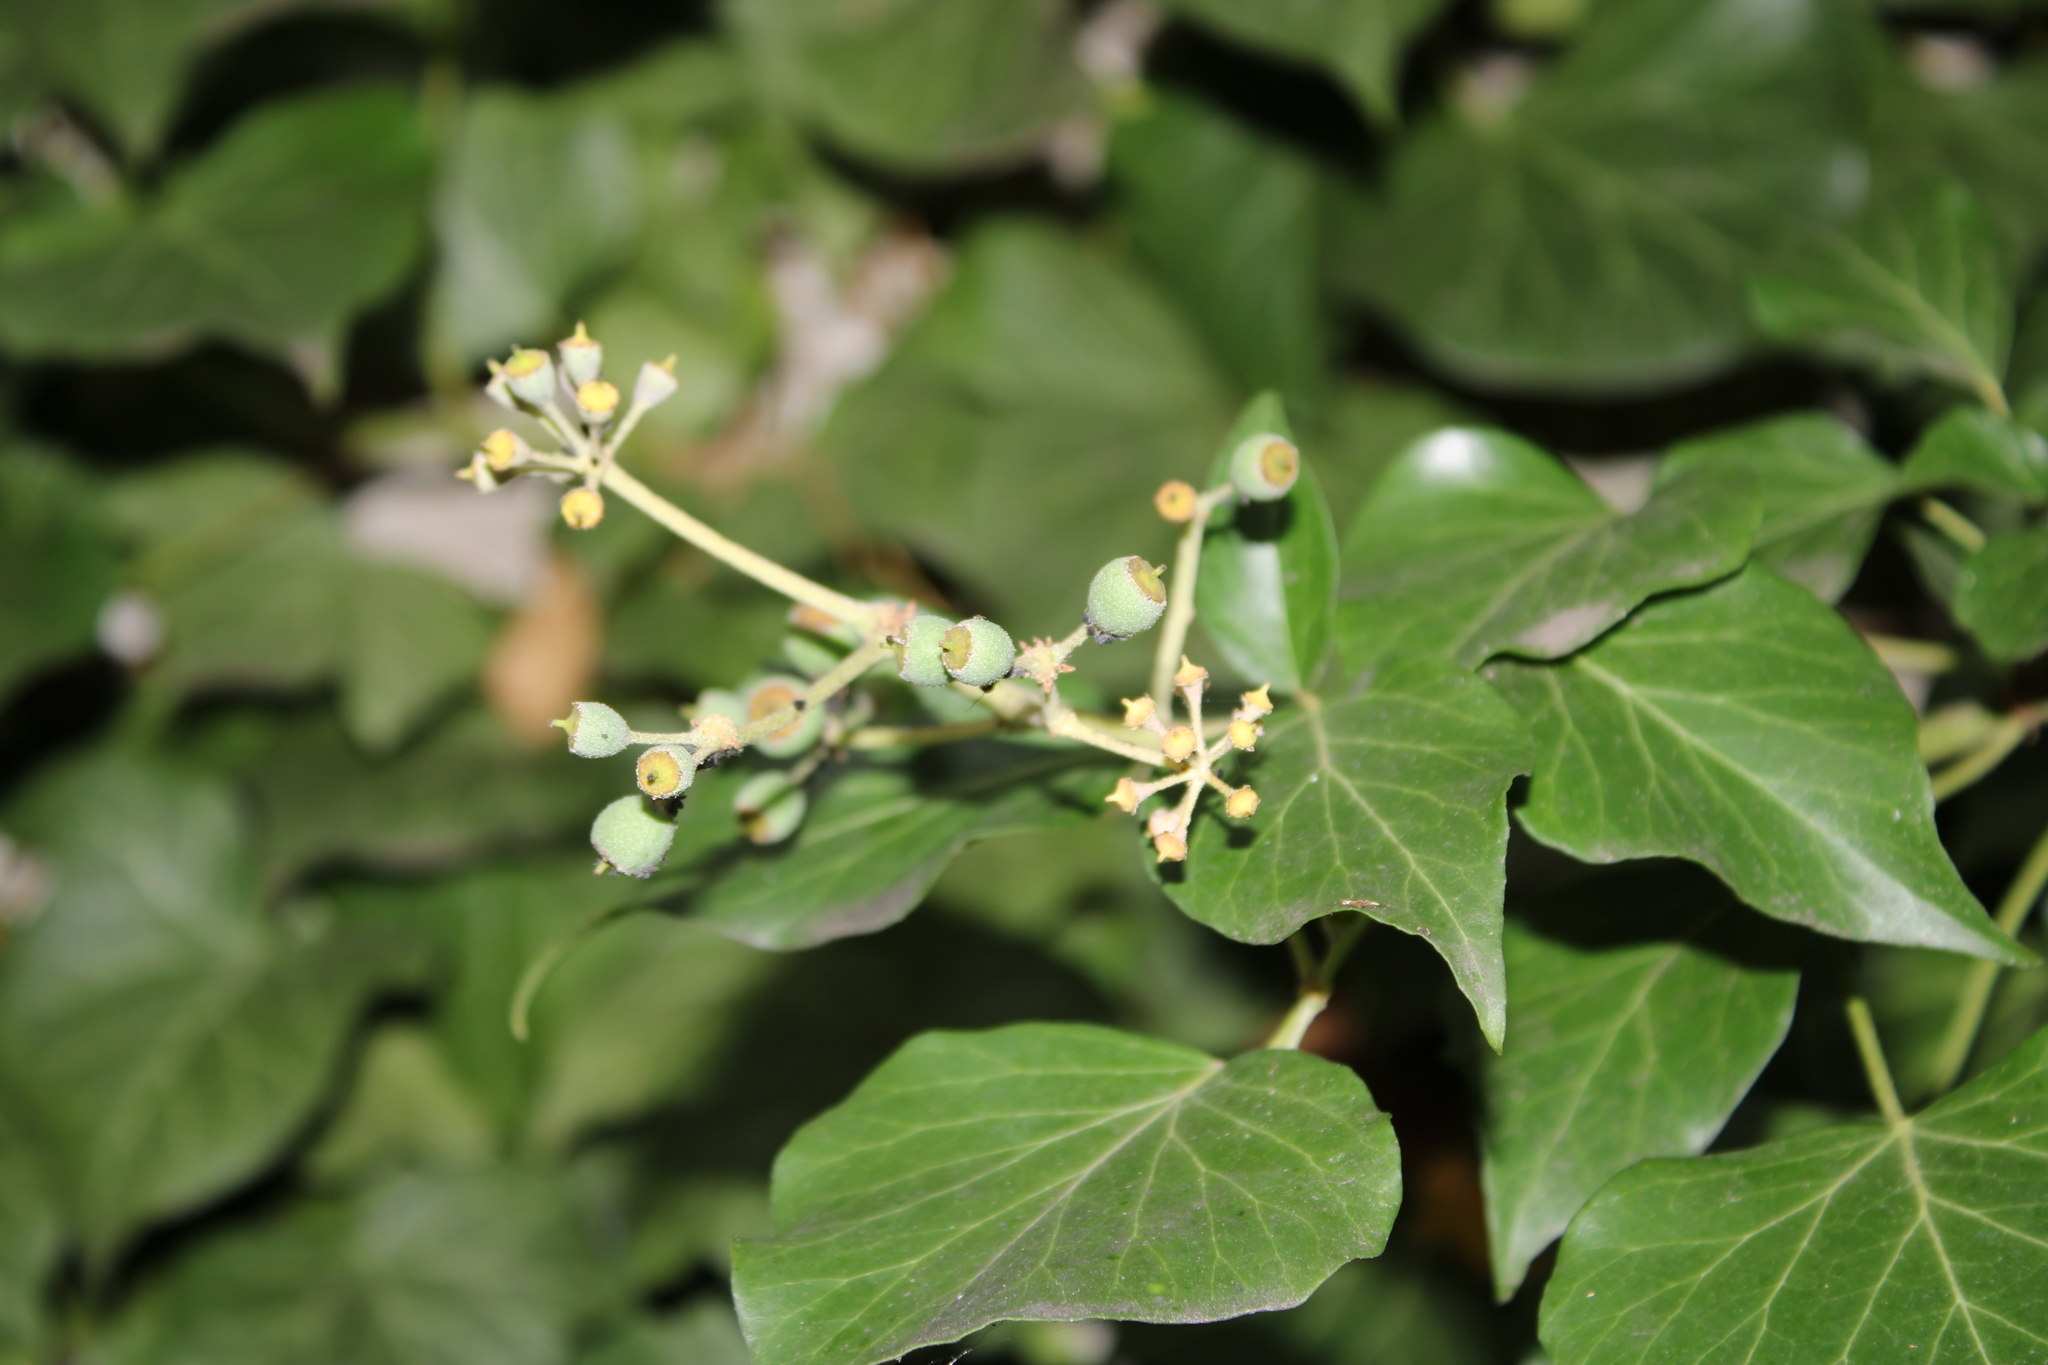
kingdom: Plantae
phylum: Tracheophyta
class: Magnoliopsida
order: Apiales
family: Araliaceae
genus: Hedera
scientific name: Hedera helix
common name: Ivy
